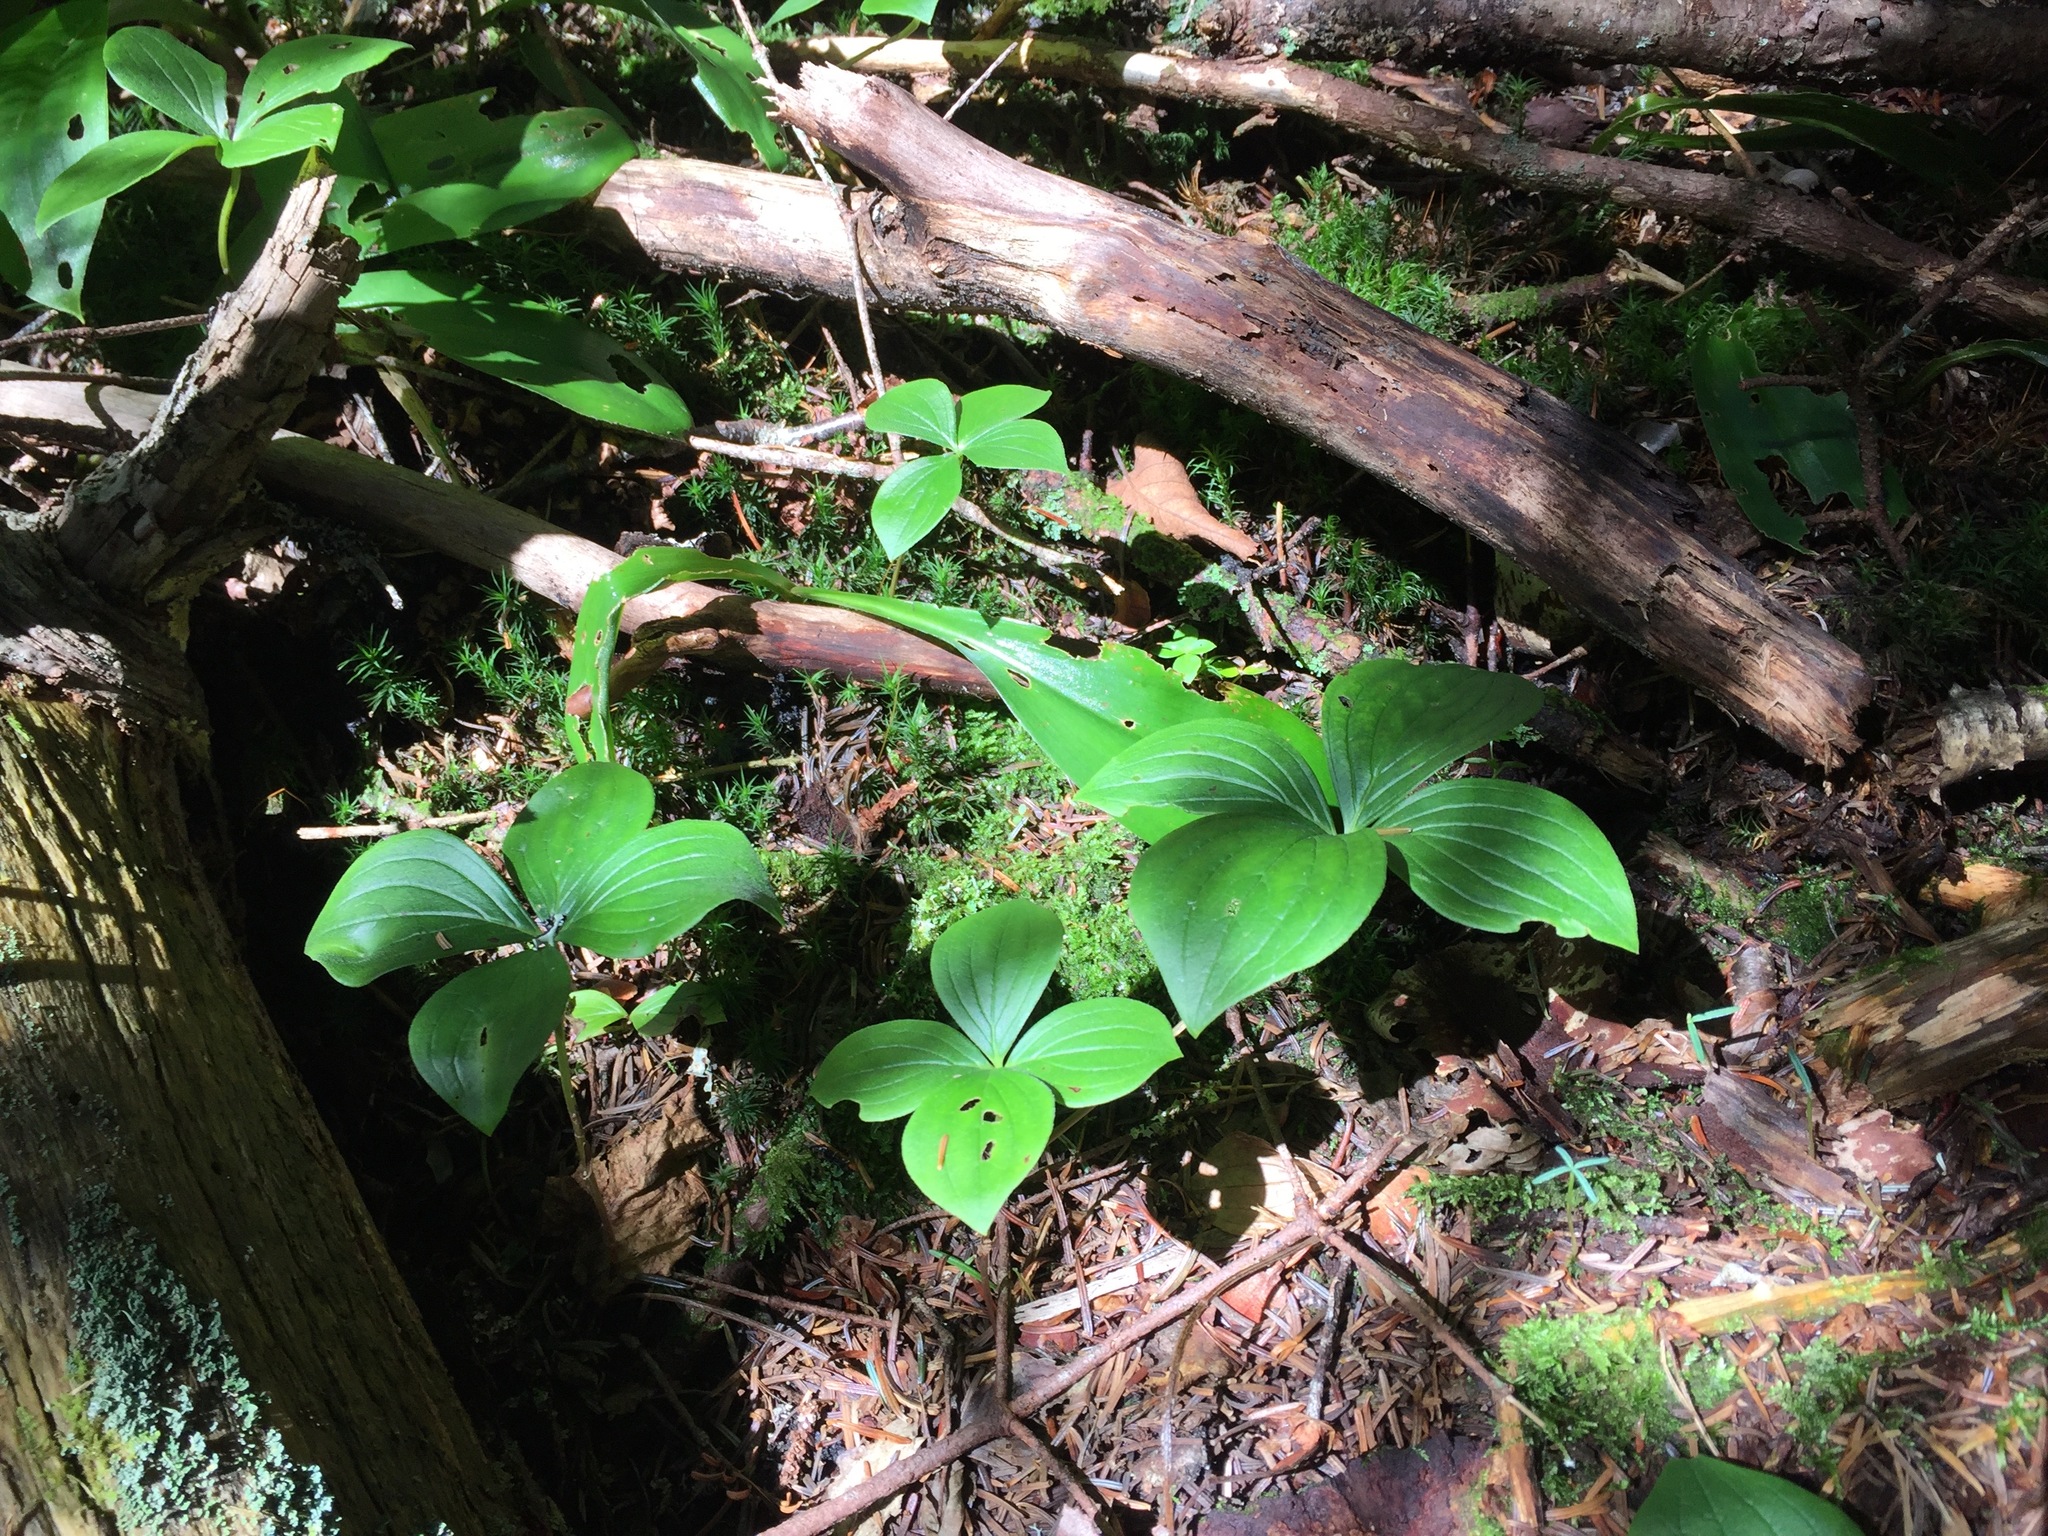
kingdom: Plantae
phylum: Tracheophyta
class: Magnoliopsida
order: Cornales
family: Cornaceae
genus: Cornus
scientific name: Cornus canadensis
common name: Creeping dogwood
